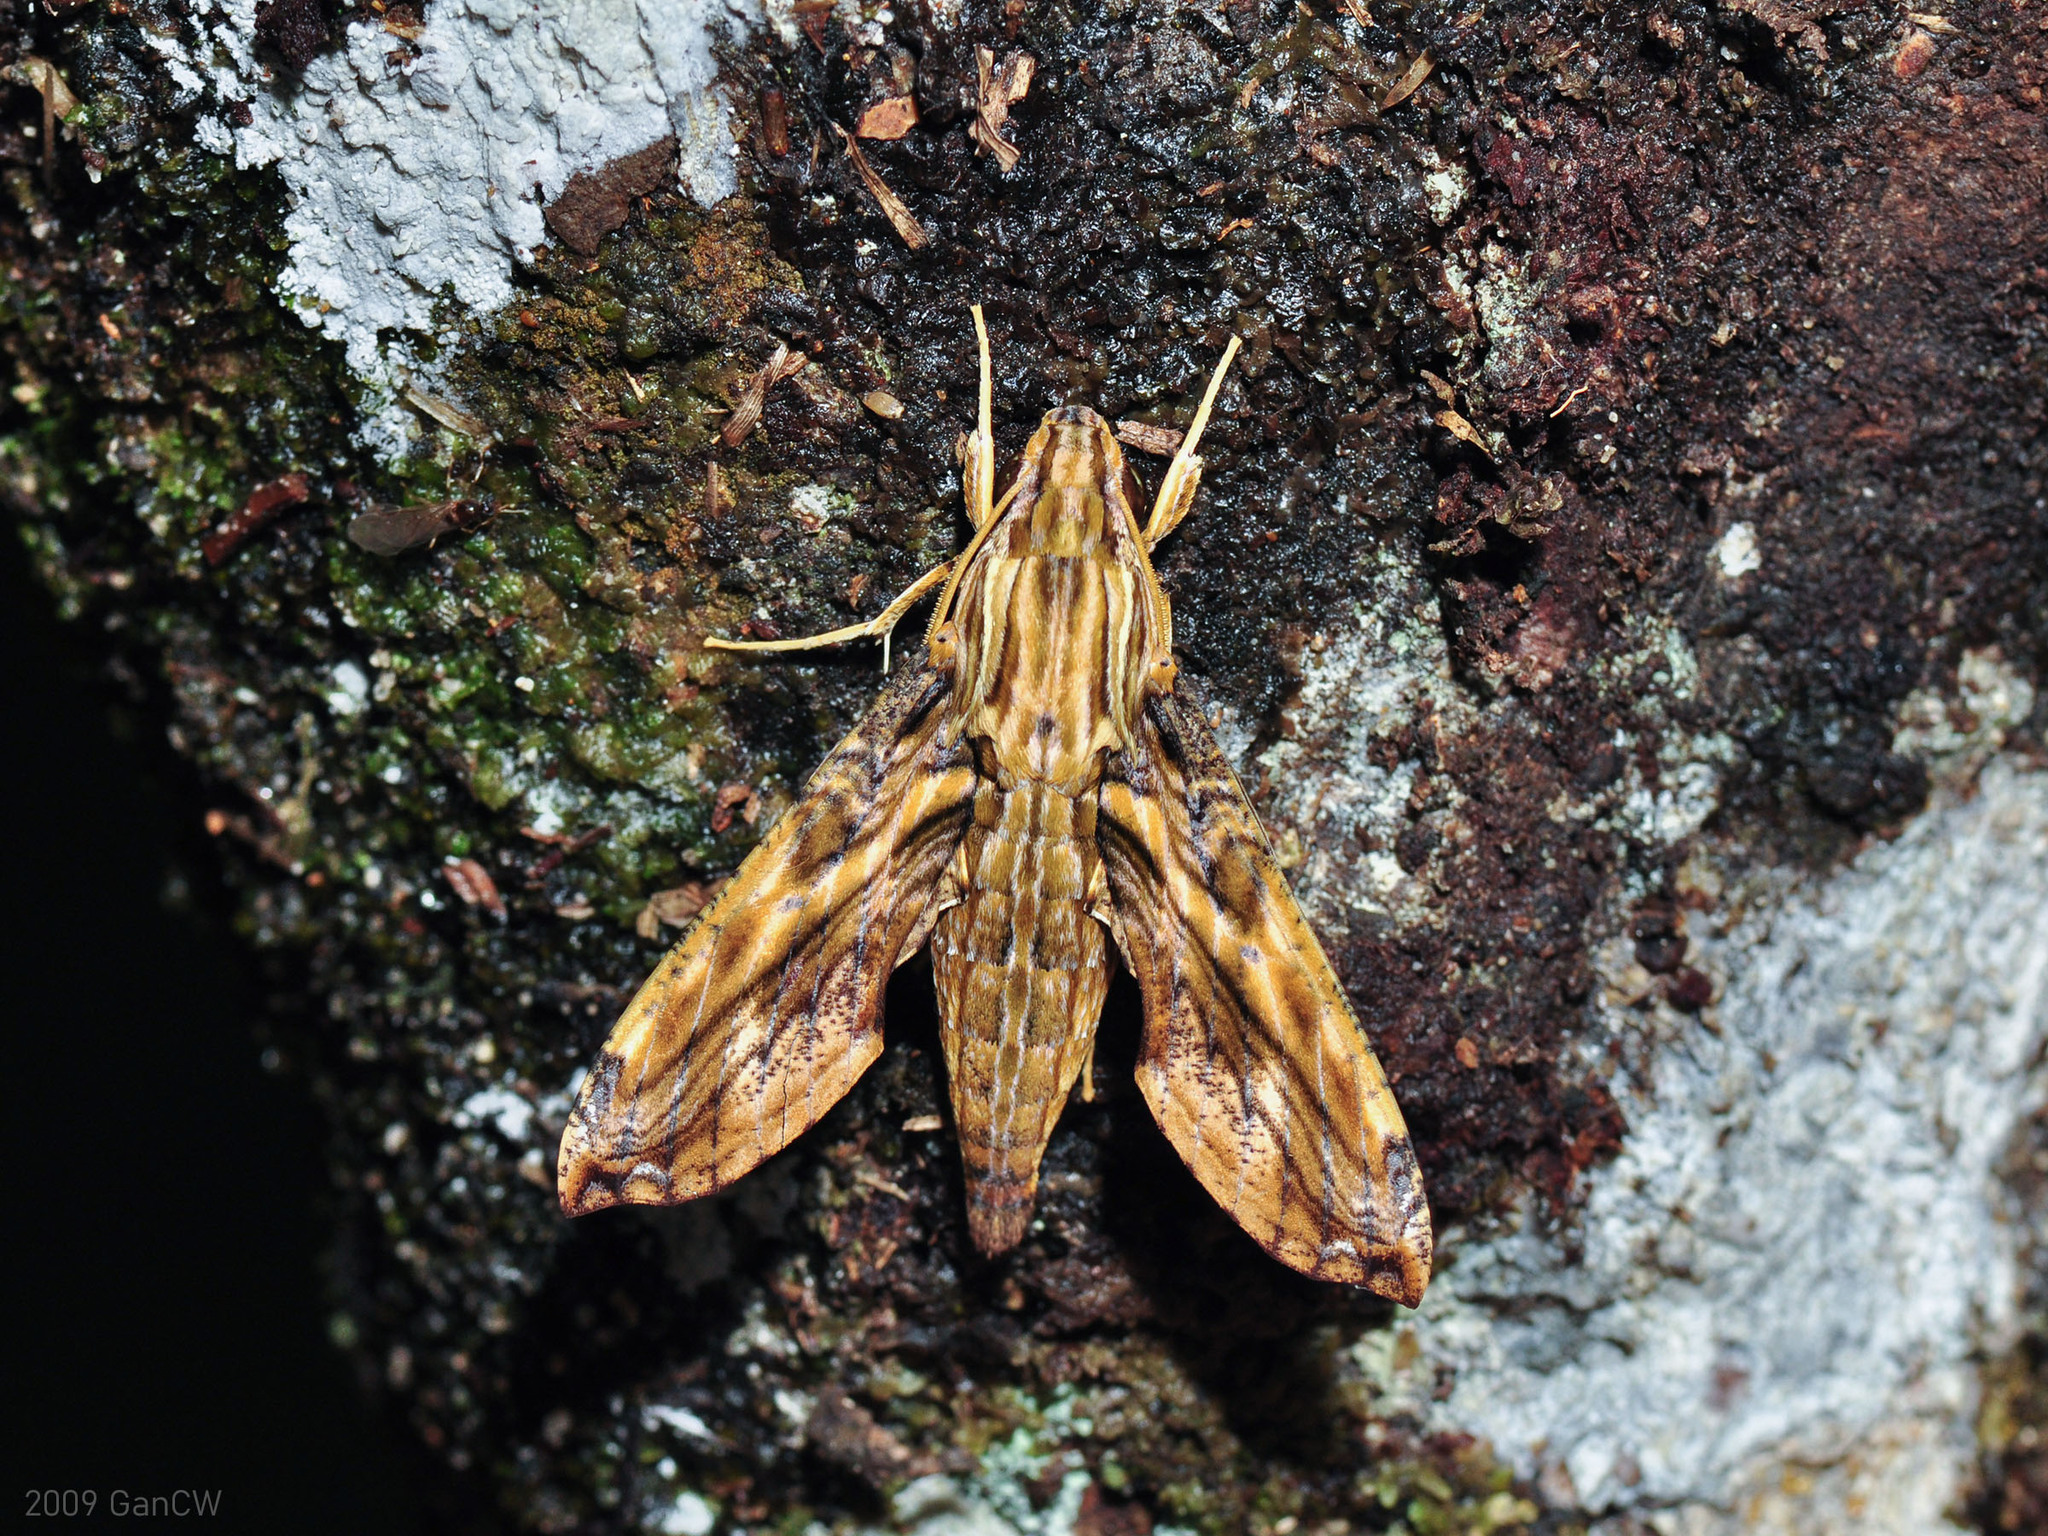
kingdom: Animalia
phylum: Arthropoda
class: Insecta
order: Lepidoptera
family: Sphingidae
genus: Eupanacra
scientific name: Eupanacra variolosa
